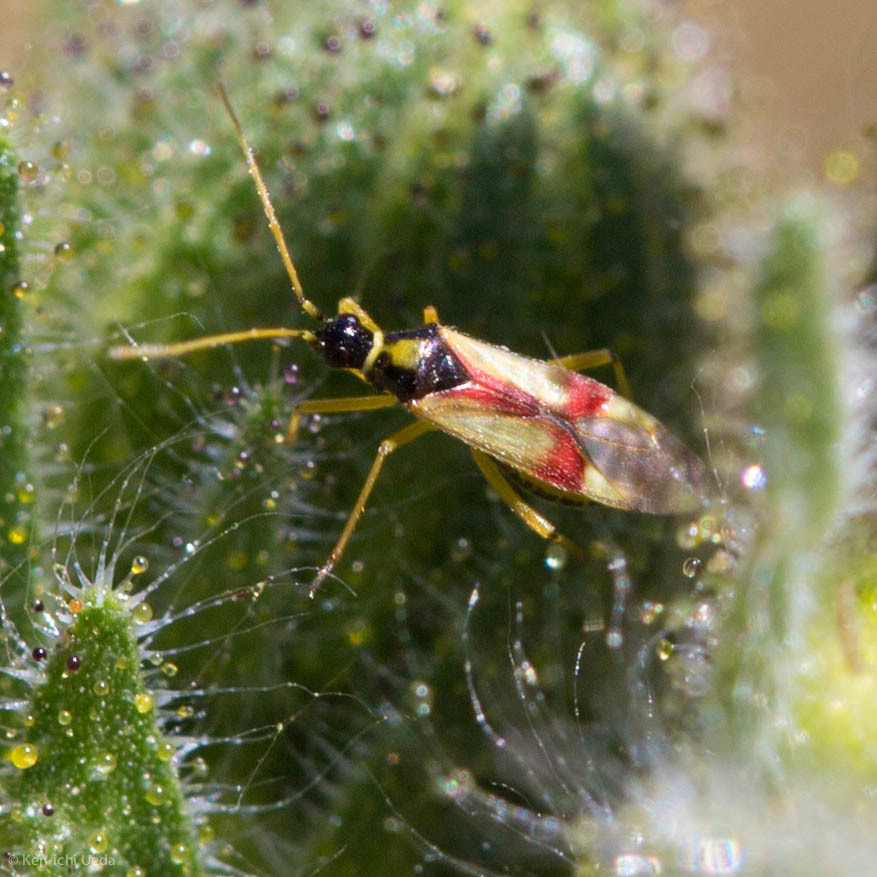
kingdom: Animalia
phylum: Arthropoda
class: Insecta
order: Hemiptera
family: Miridae
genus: Tupiocoris
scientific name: Tupiocoris californicus
